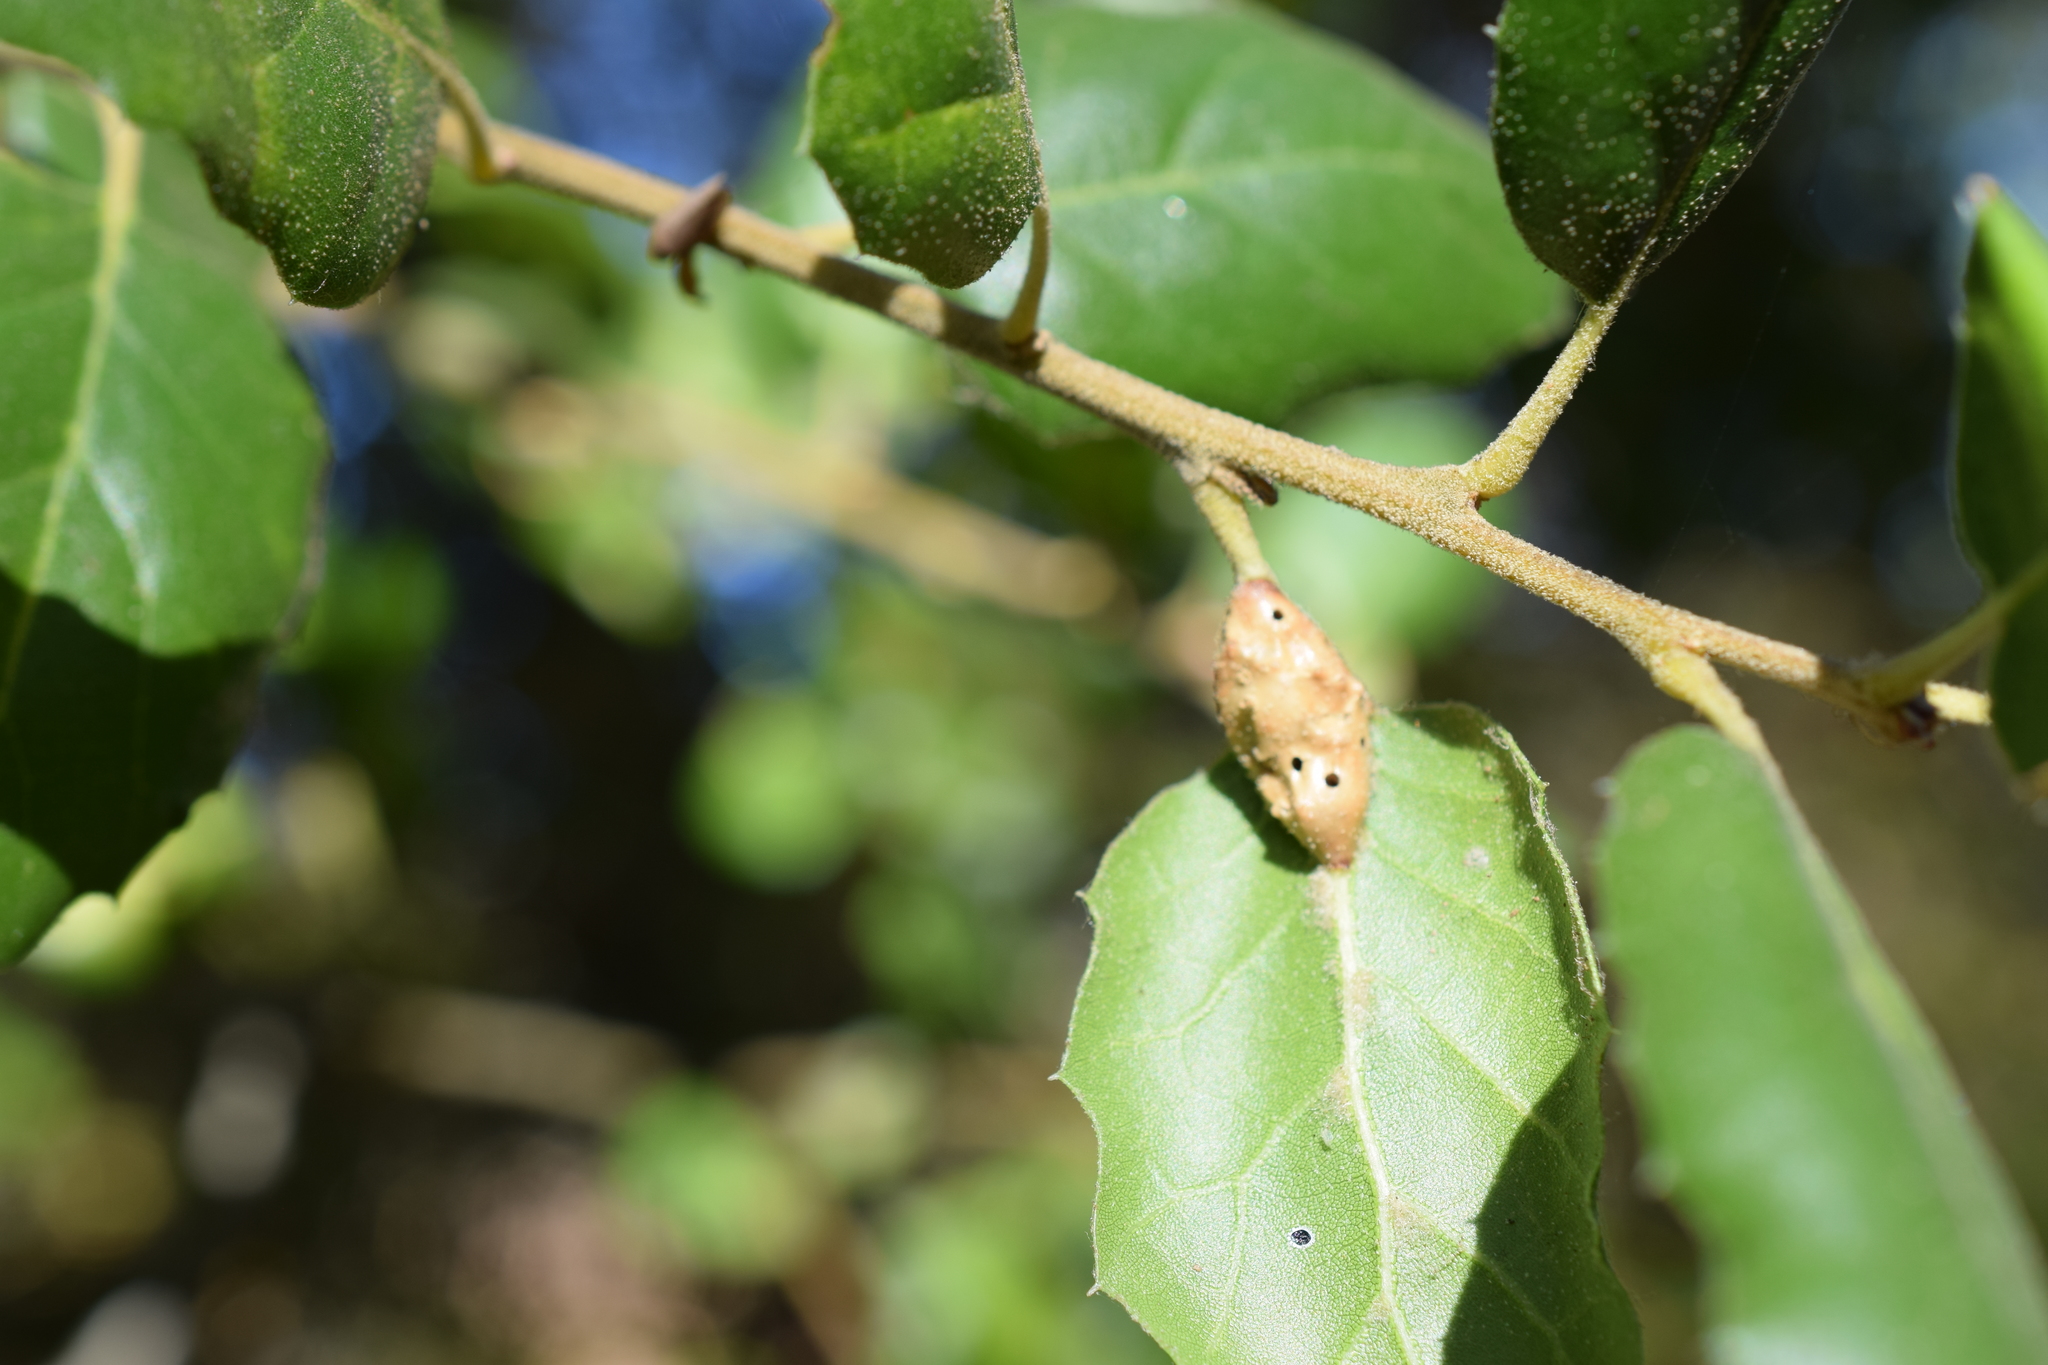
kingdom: Animalia
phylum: Arthropoda
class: Insecta
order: Hymenoptera
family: Cynipidae
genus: Melikaiella
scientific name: Melikaiella
